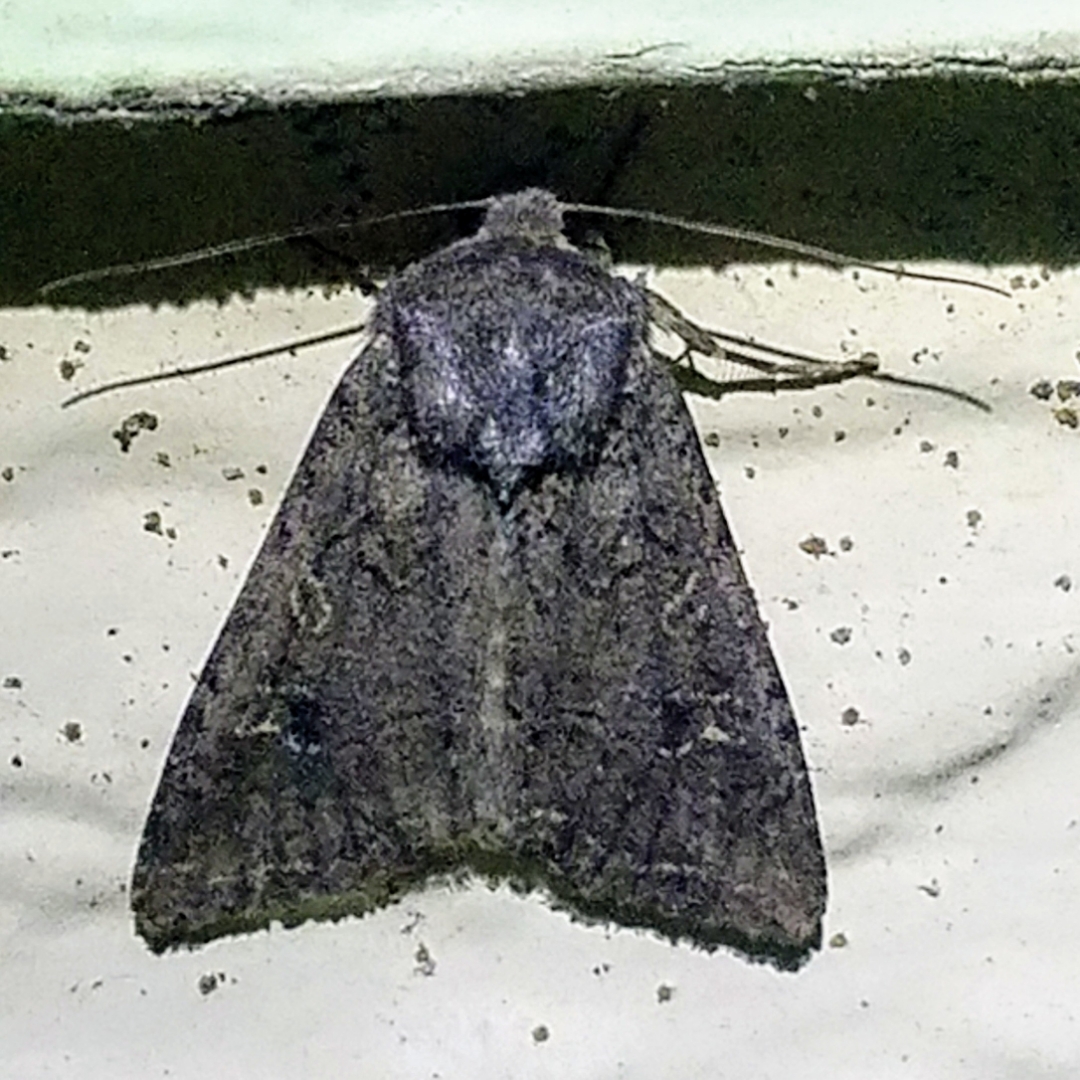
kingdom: Animalia
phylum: Arthropoda
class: Insecta
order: Lepidoptera
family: Noctuidae
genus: Apamea
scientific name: Apamea devastator
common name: Glassy cutworm
